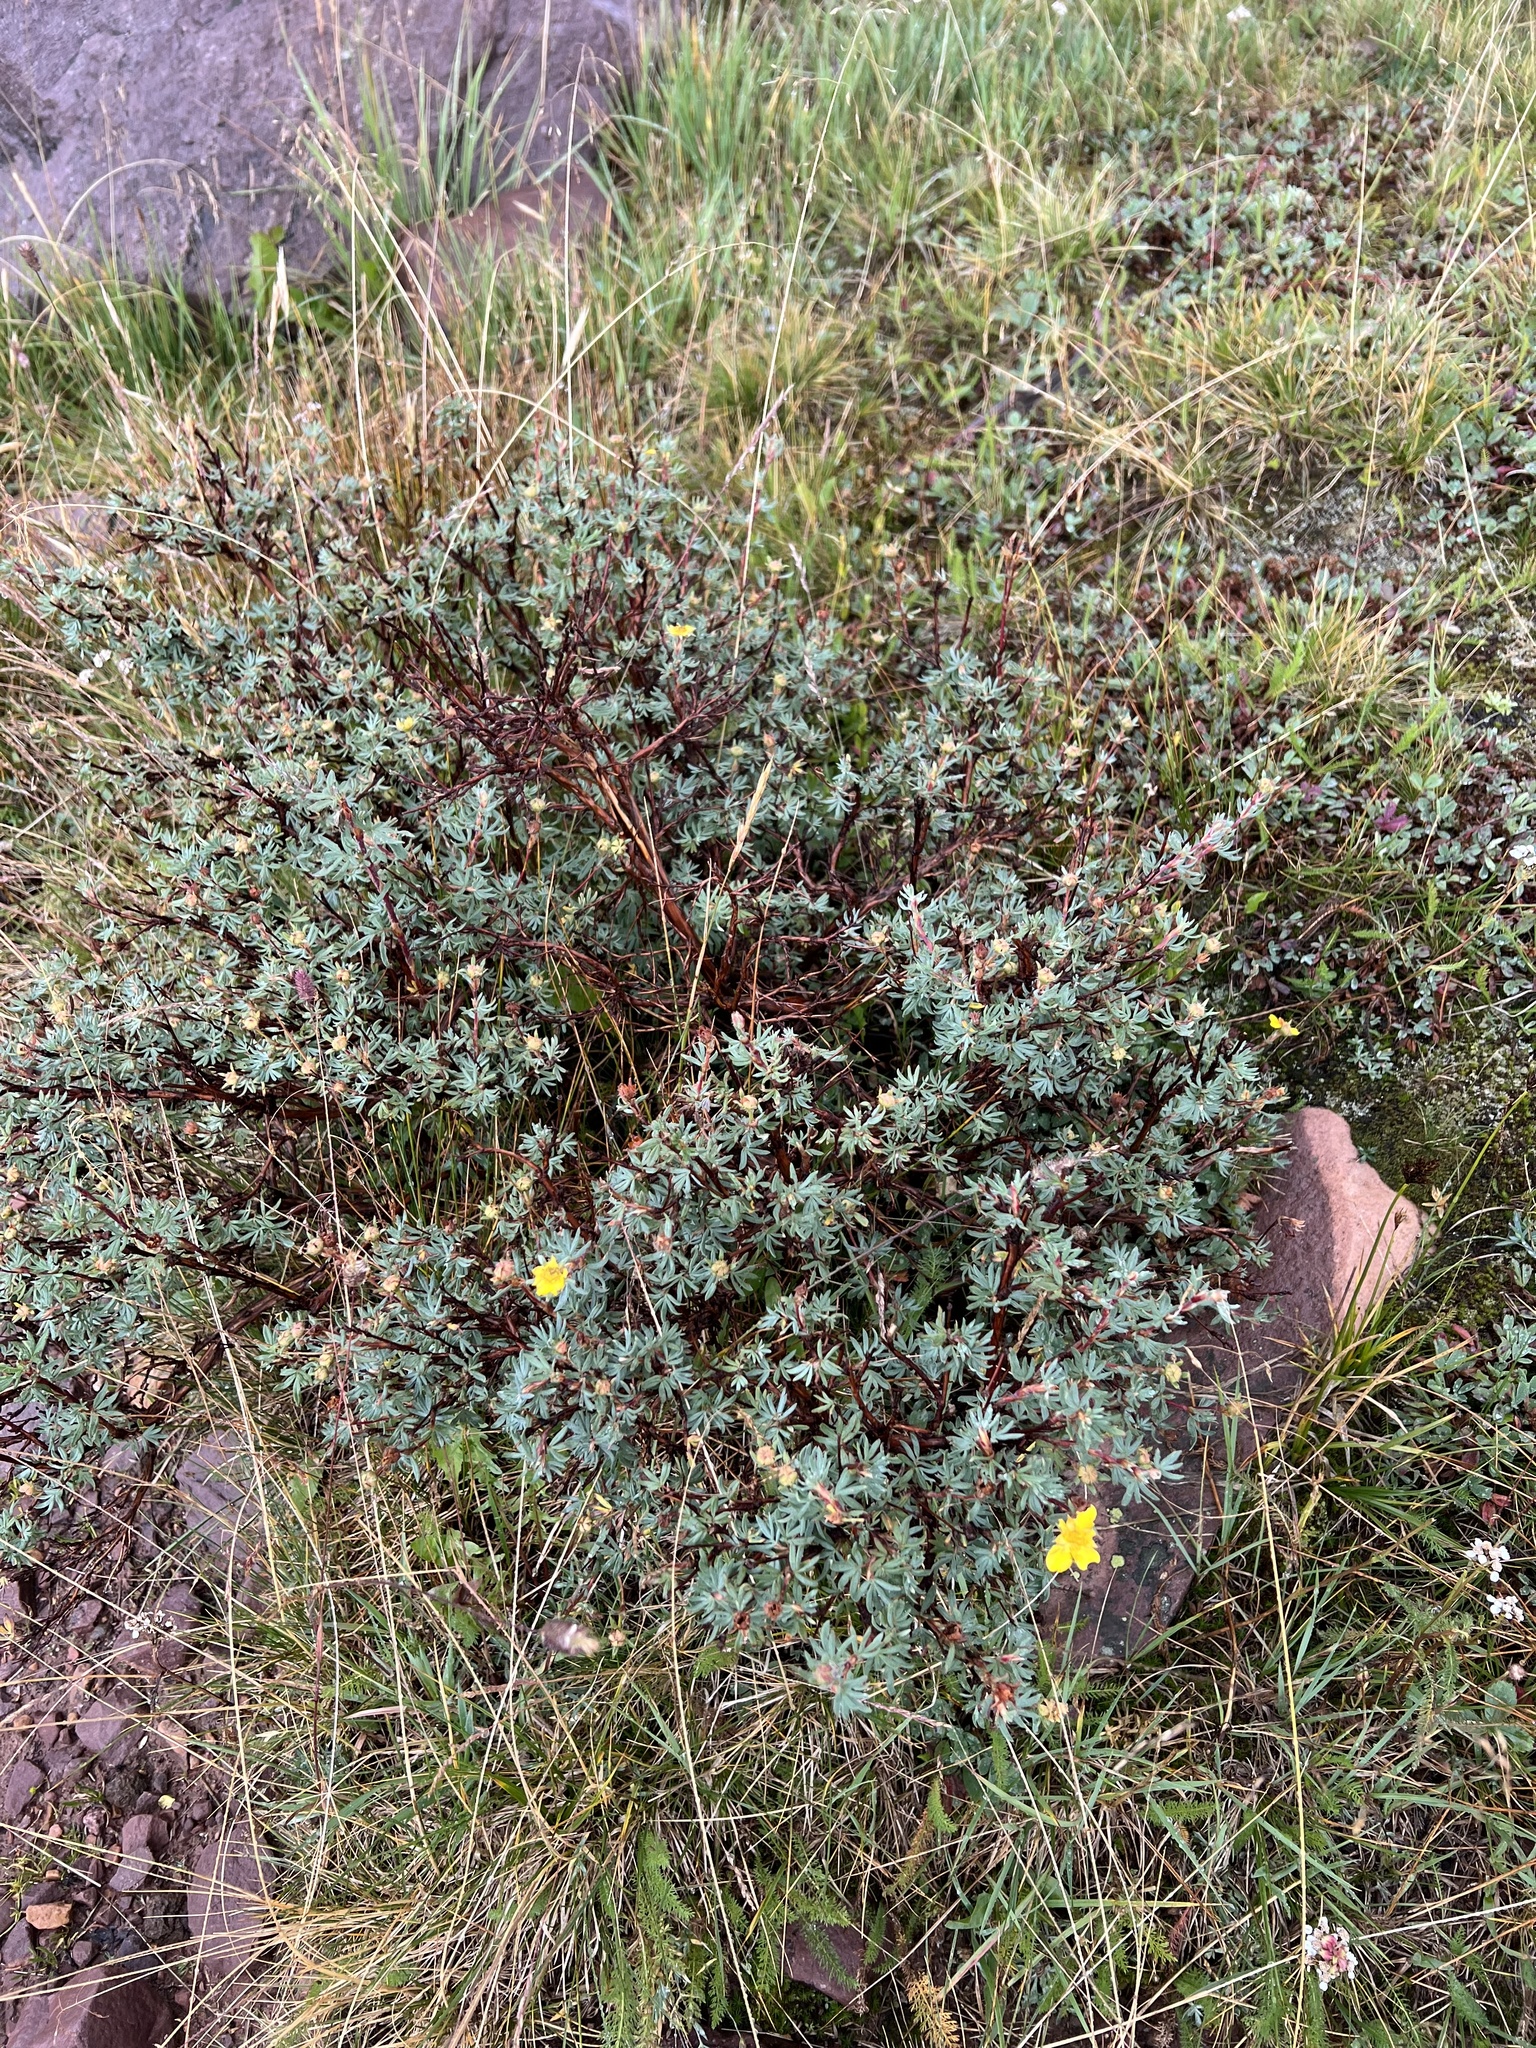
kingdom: Plantae
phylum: Tracheophyta
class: Magnoliopsida
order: Rosales
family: Rosaceae
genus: Dasiphora
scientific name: Dasiphora fruticosa
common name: Shrubby cinquefoil
